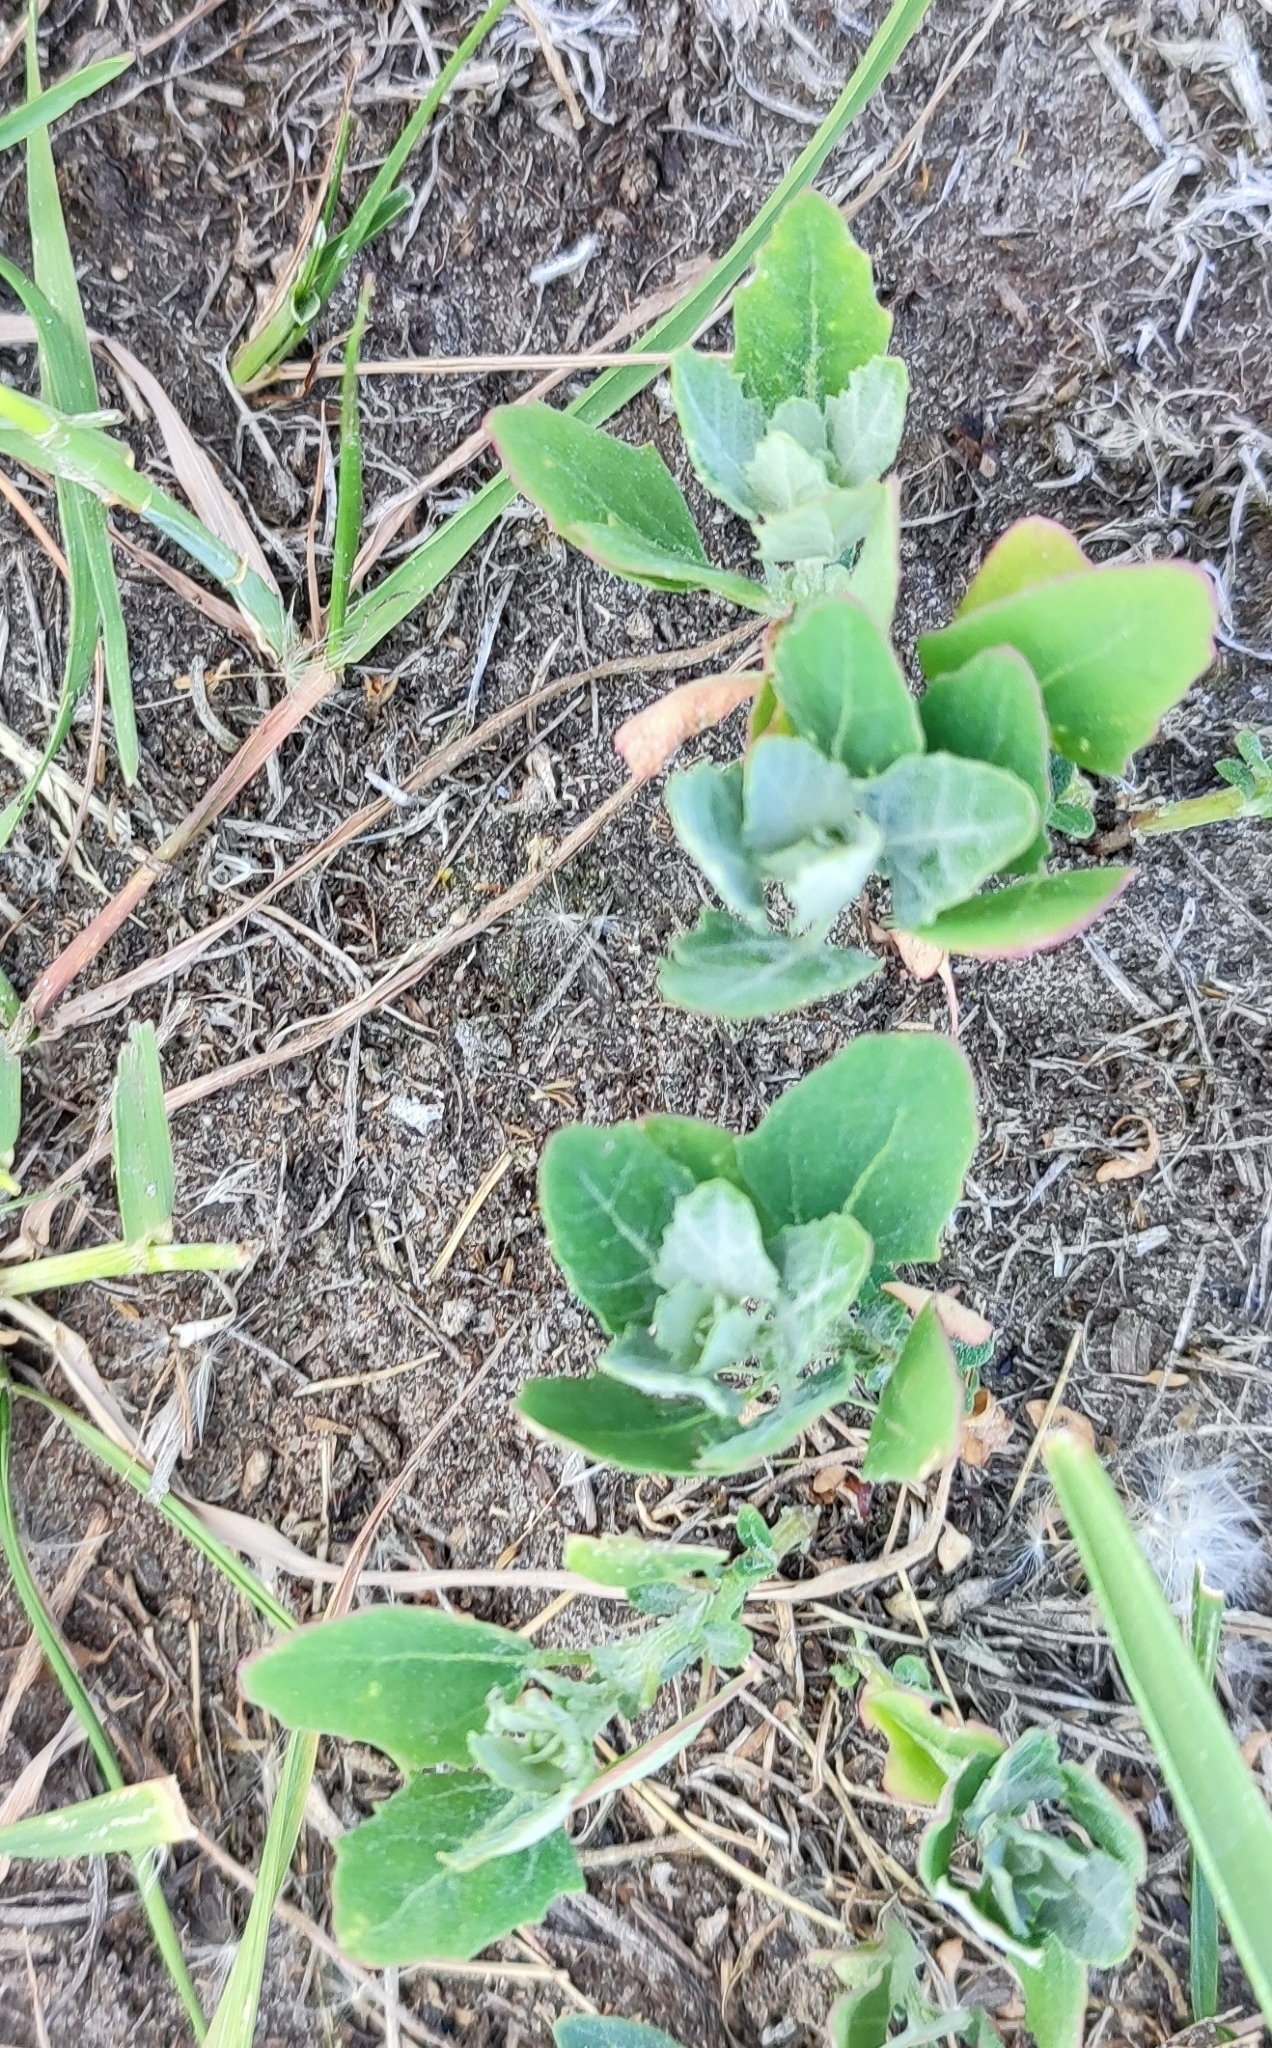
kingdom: Plantae
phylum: Tracheophyta
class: Magnoliopsida
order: Caryophyllales
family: Amaranthaceae
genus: Chenopodium
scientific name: Chenopodium album
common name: Fat-hen
